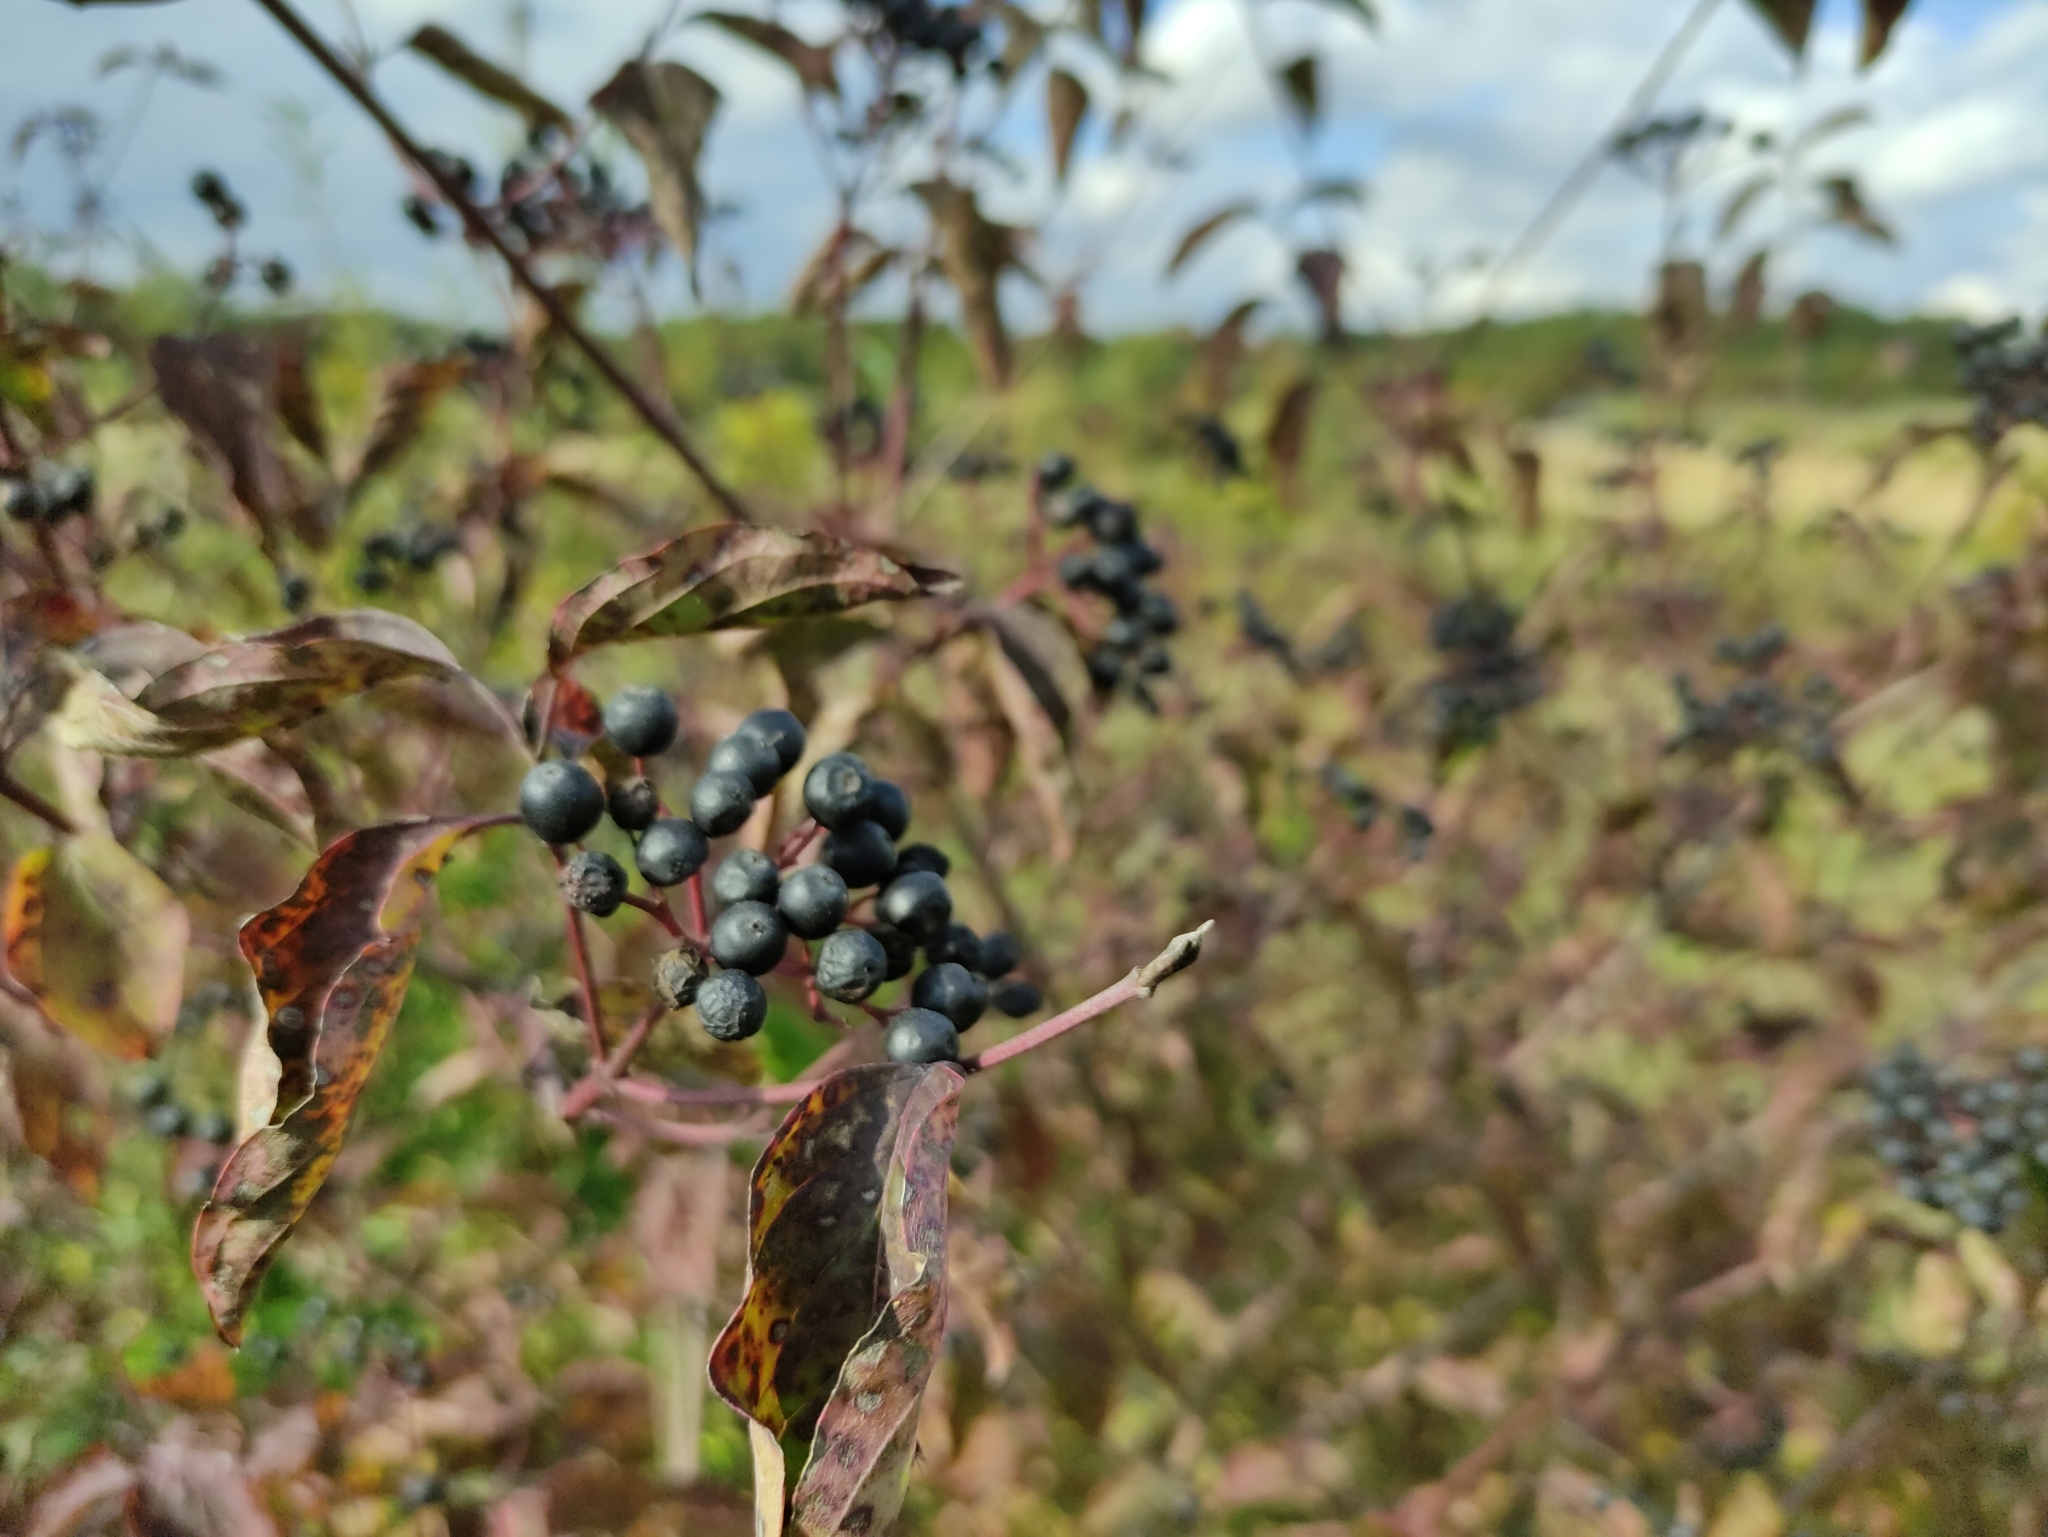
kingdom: Plantae
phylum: Tracheophyta
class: Magnoliopsida
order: Cornales
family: Cornaceae
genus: Cornus
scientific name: Cornus sanguinea
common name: Dogwood
